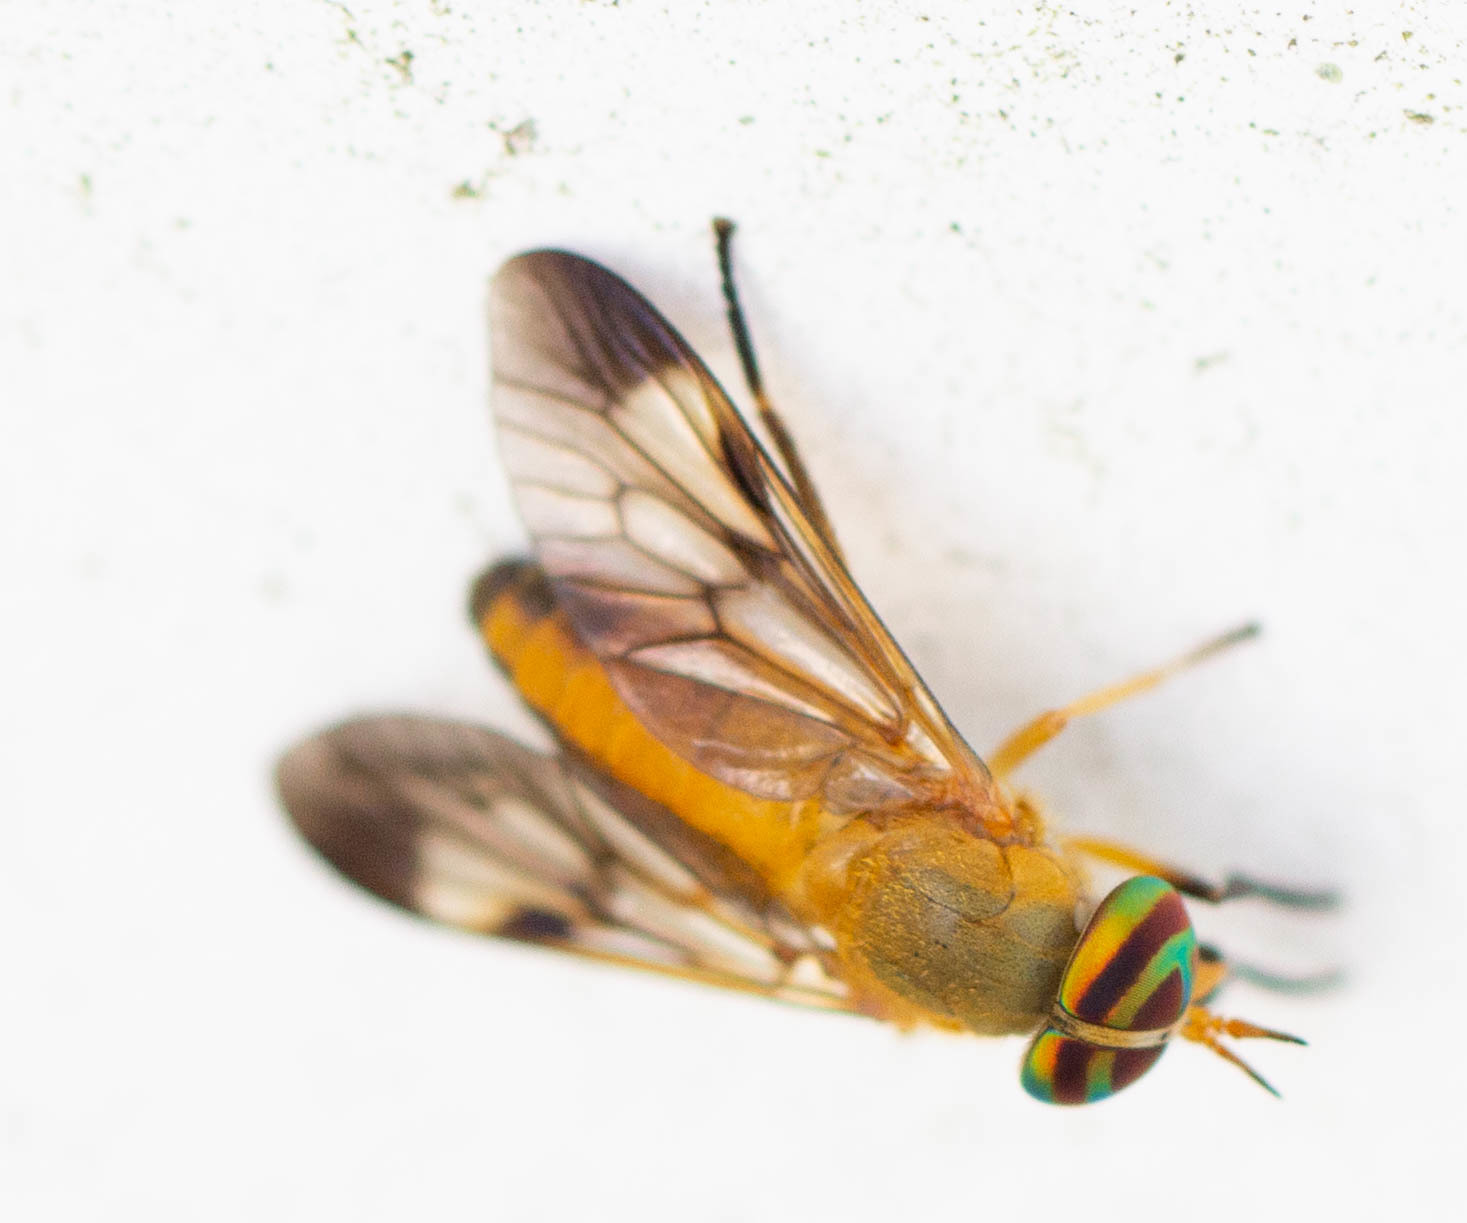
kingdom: Animalia
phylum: Arthropoda
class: Insecta
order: Diptera
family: Tabanidae
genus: Diachlorus
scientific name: Diachlorus ferrugatus
